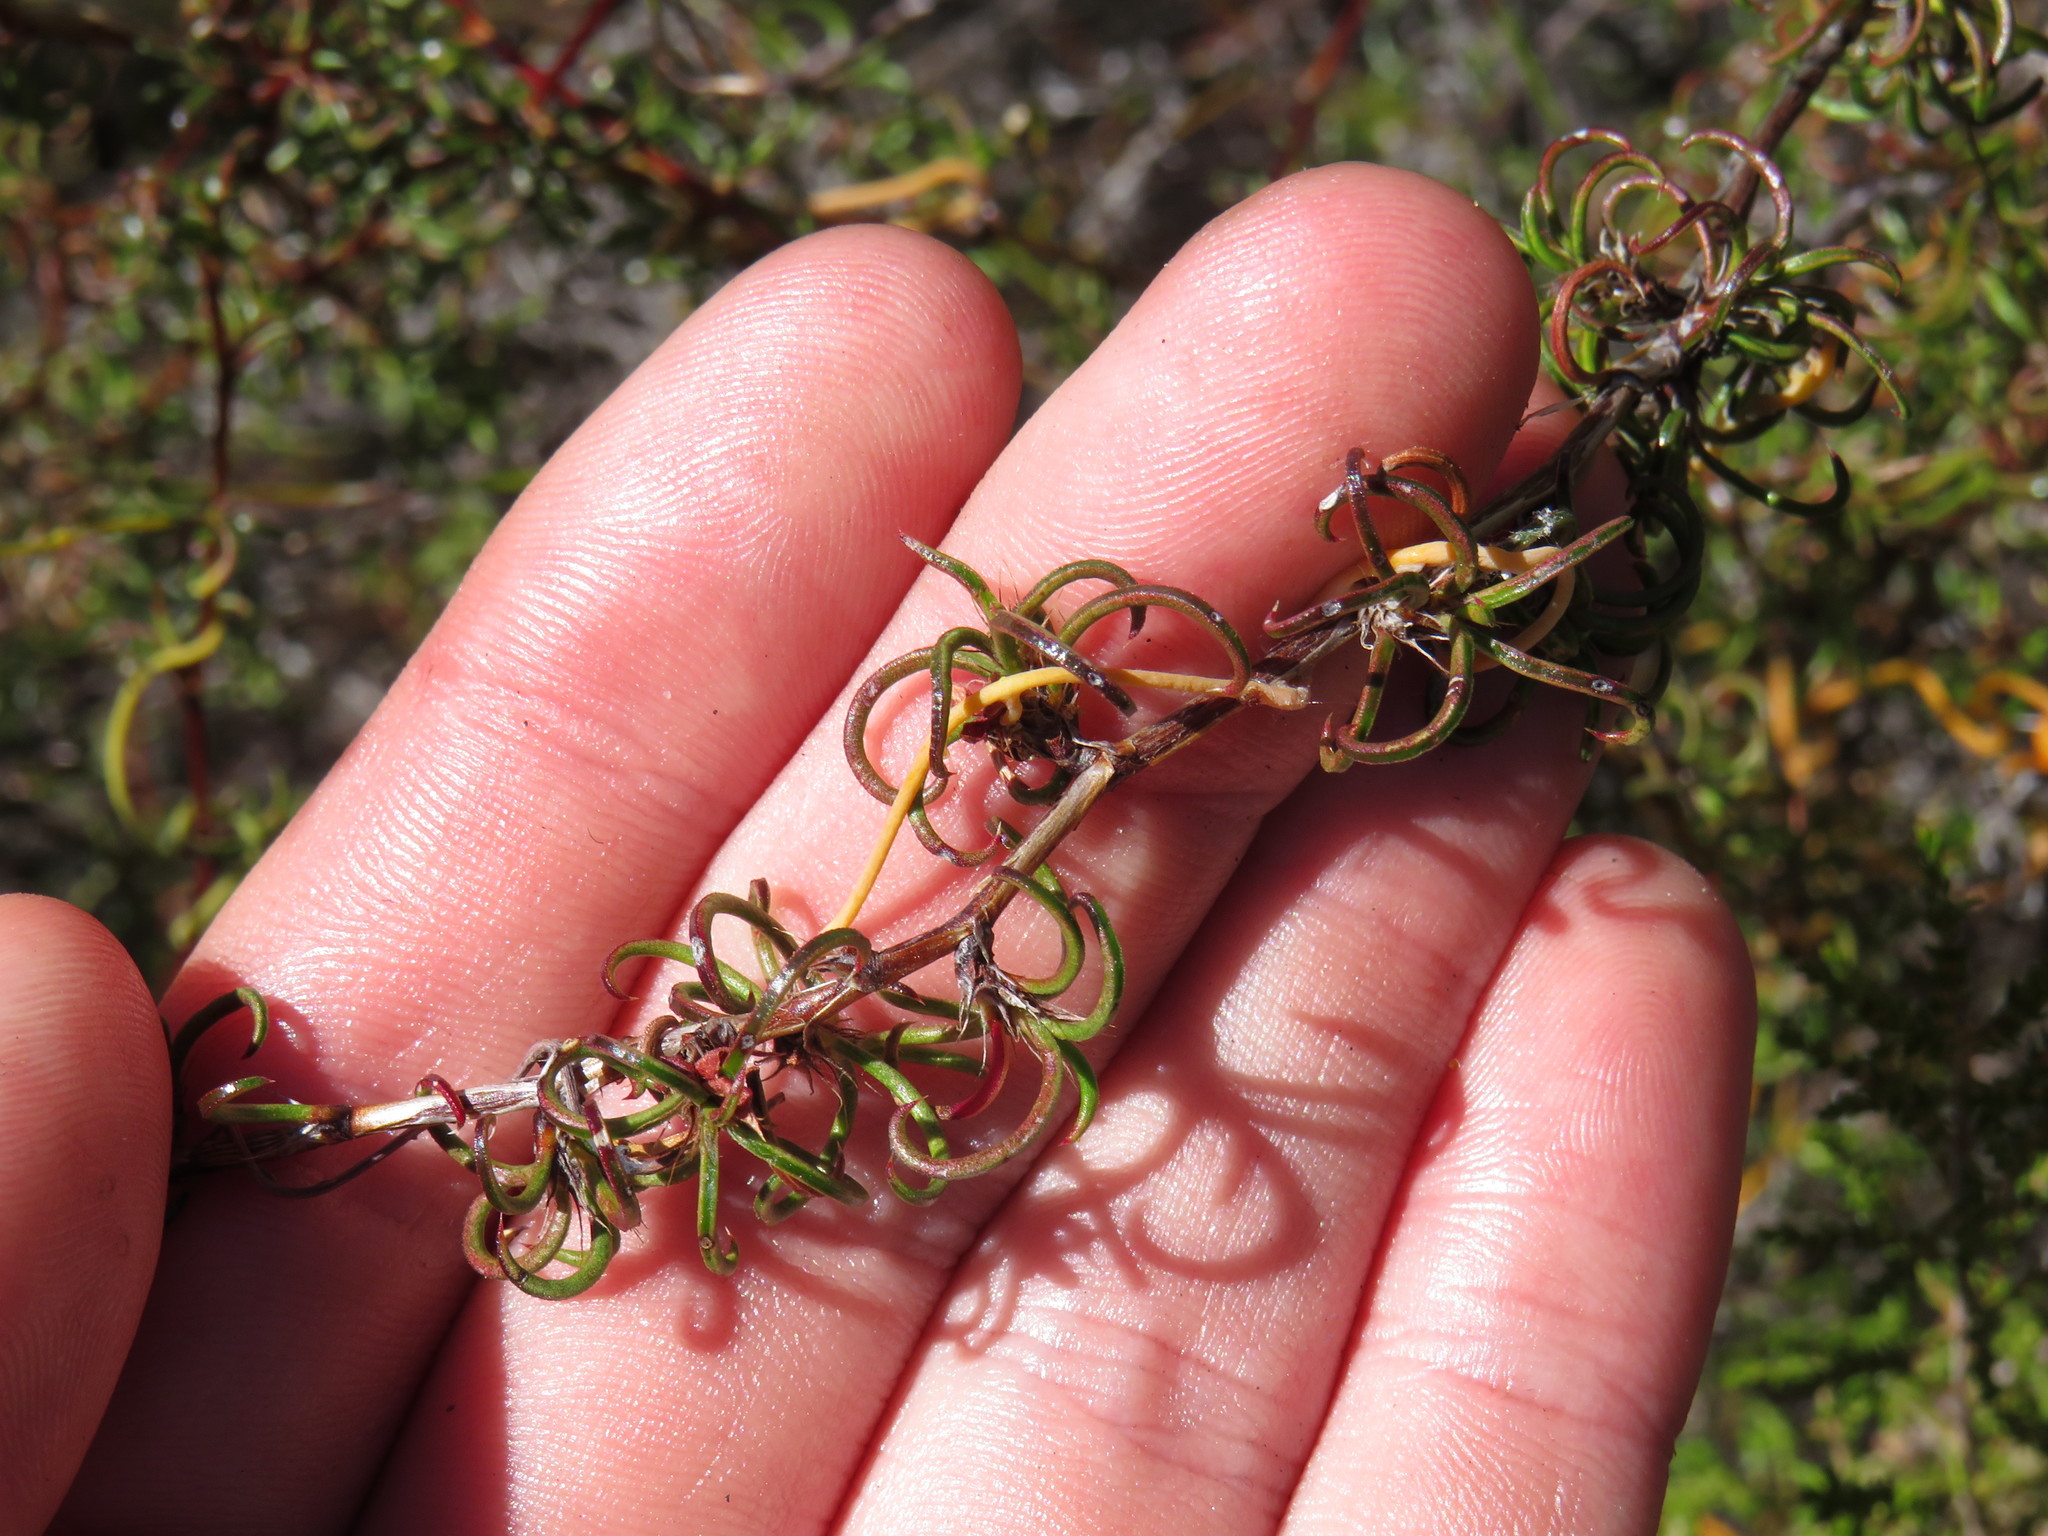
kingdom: Plantae
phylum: Tracheophyta
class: Magnoliopsida
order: Rosales
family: Rosaceae
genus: Cliffortia
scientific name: Cliffortia uncinata
